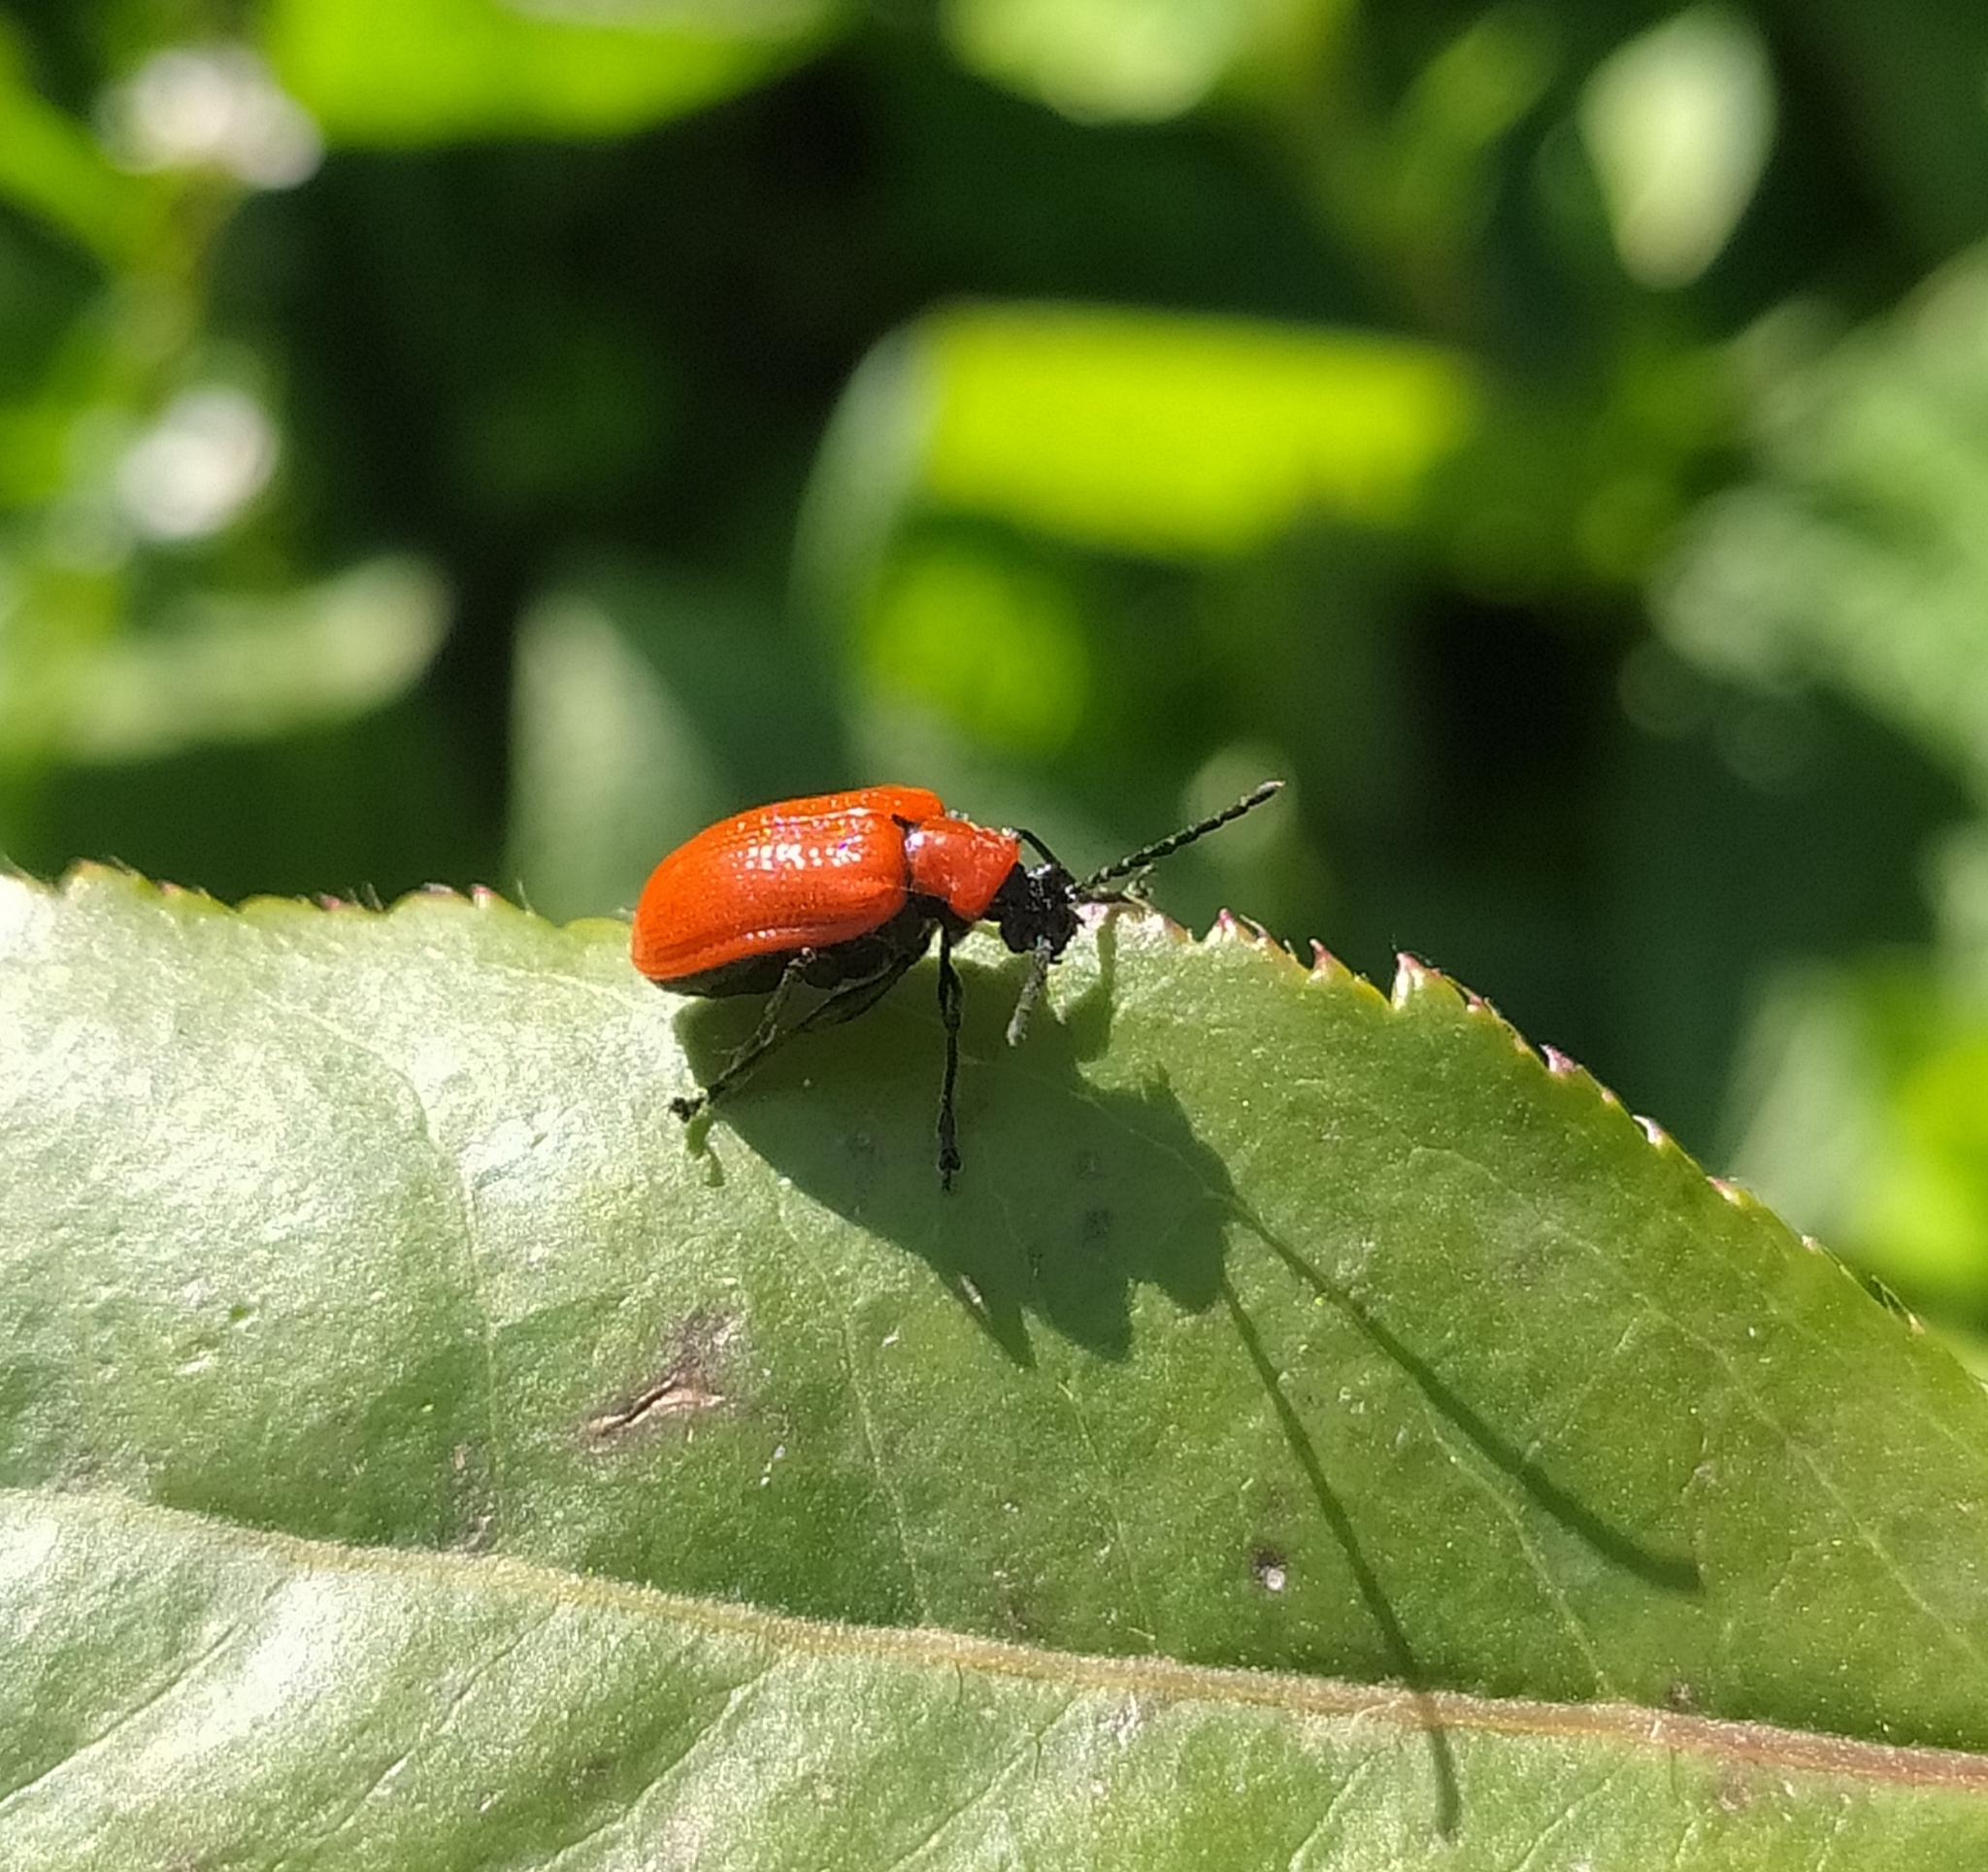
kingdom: Animalia
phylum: Arthropoda
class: Insecta
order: Coleoptera
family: Chrysomelidae
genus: Lilioceris
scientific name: Lilioceris lilii
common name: Lily beetle
